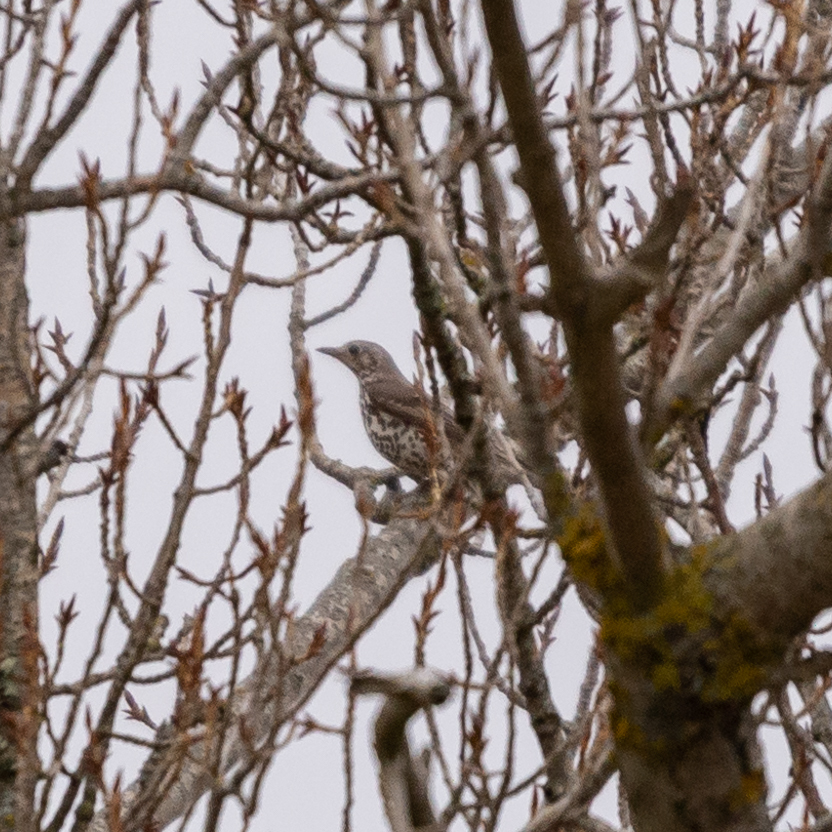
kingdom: Animalia
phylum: Chordata
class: Aves
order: Passeriformes
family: Turdidae
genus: Turdus
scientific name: Turdus viscivorus
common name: Mistle thrush
